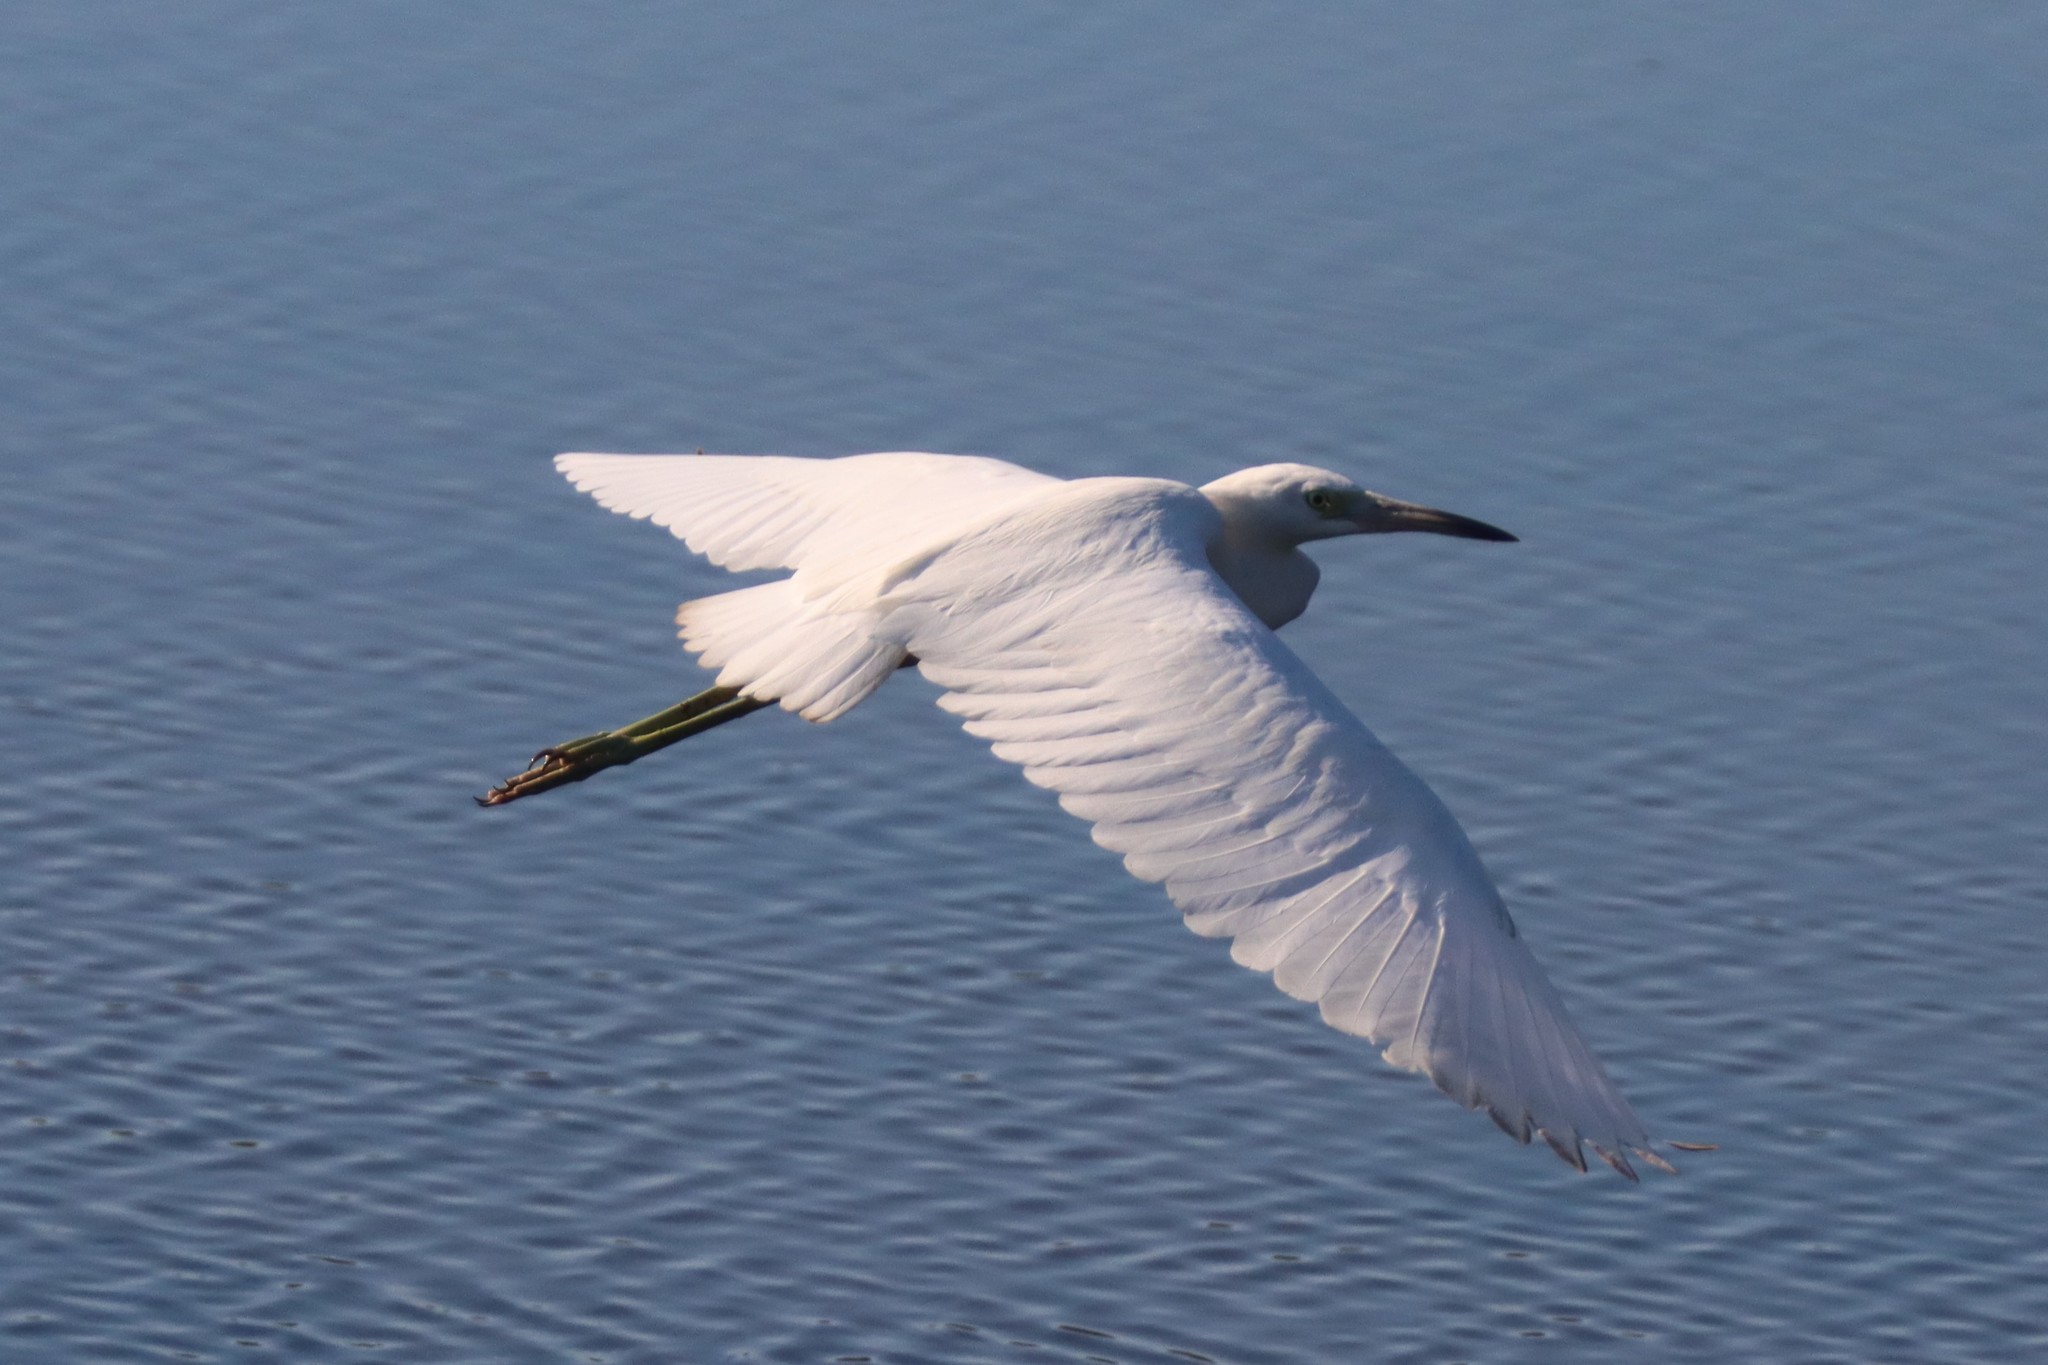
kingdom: Animalia
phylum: Chordata
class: Aves
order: Pelecaniformes
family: Ardeidae
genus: Egretta
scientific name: Egretta caerulea
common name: Little blue heron
